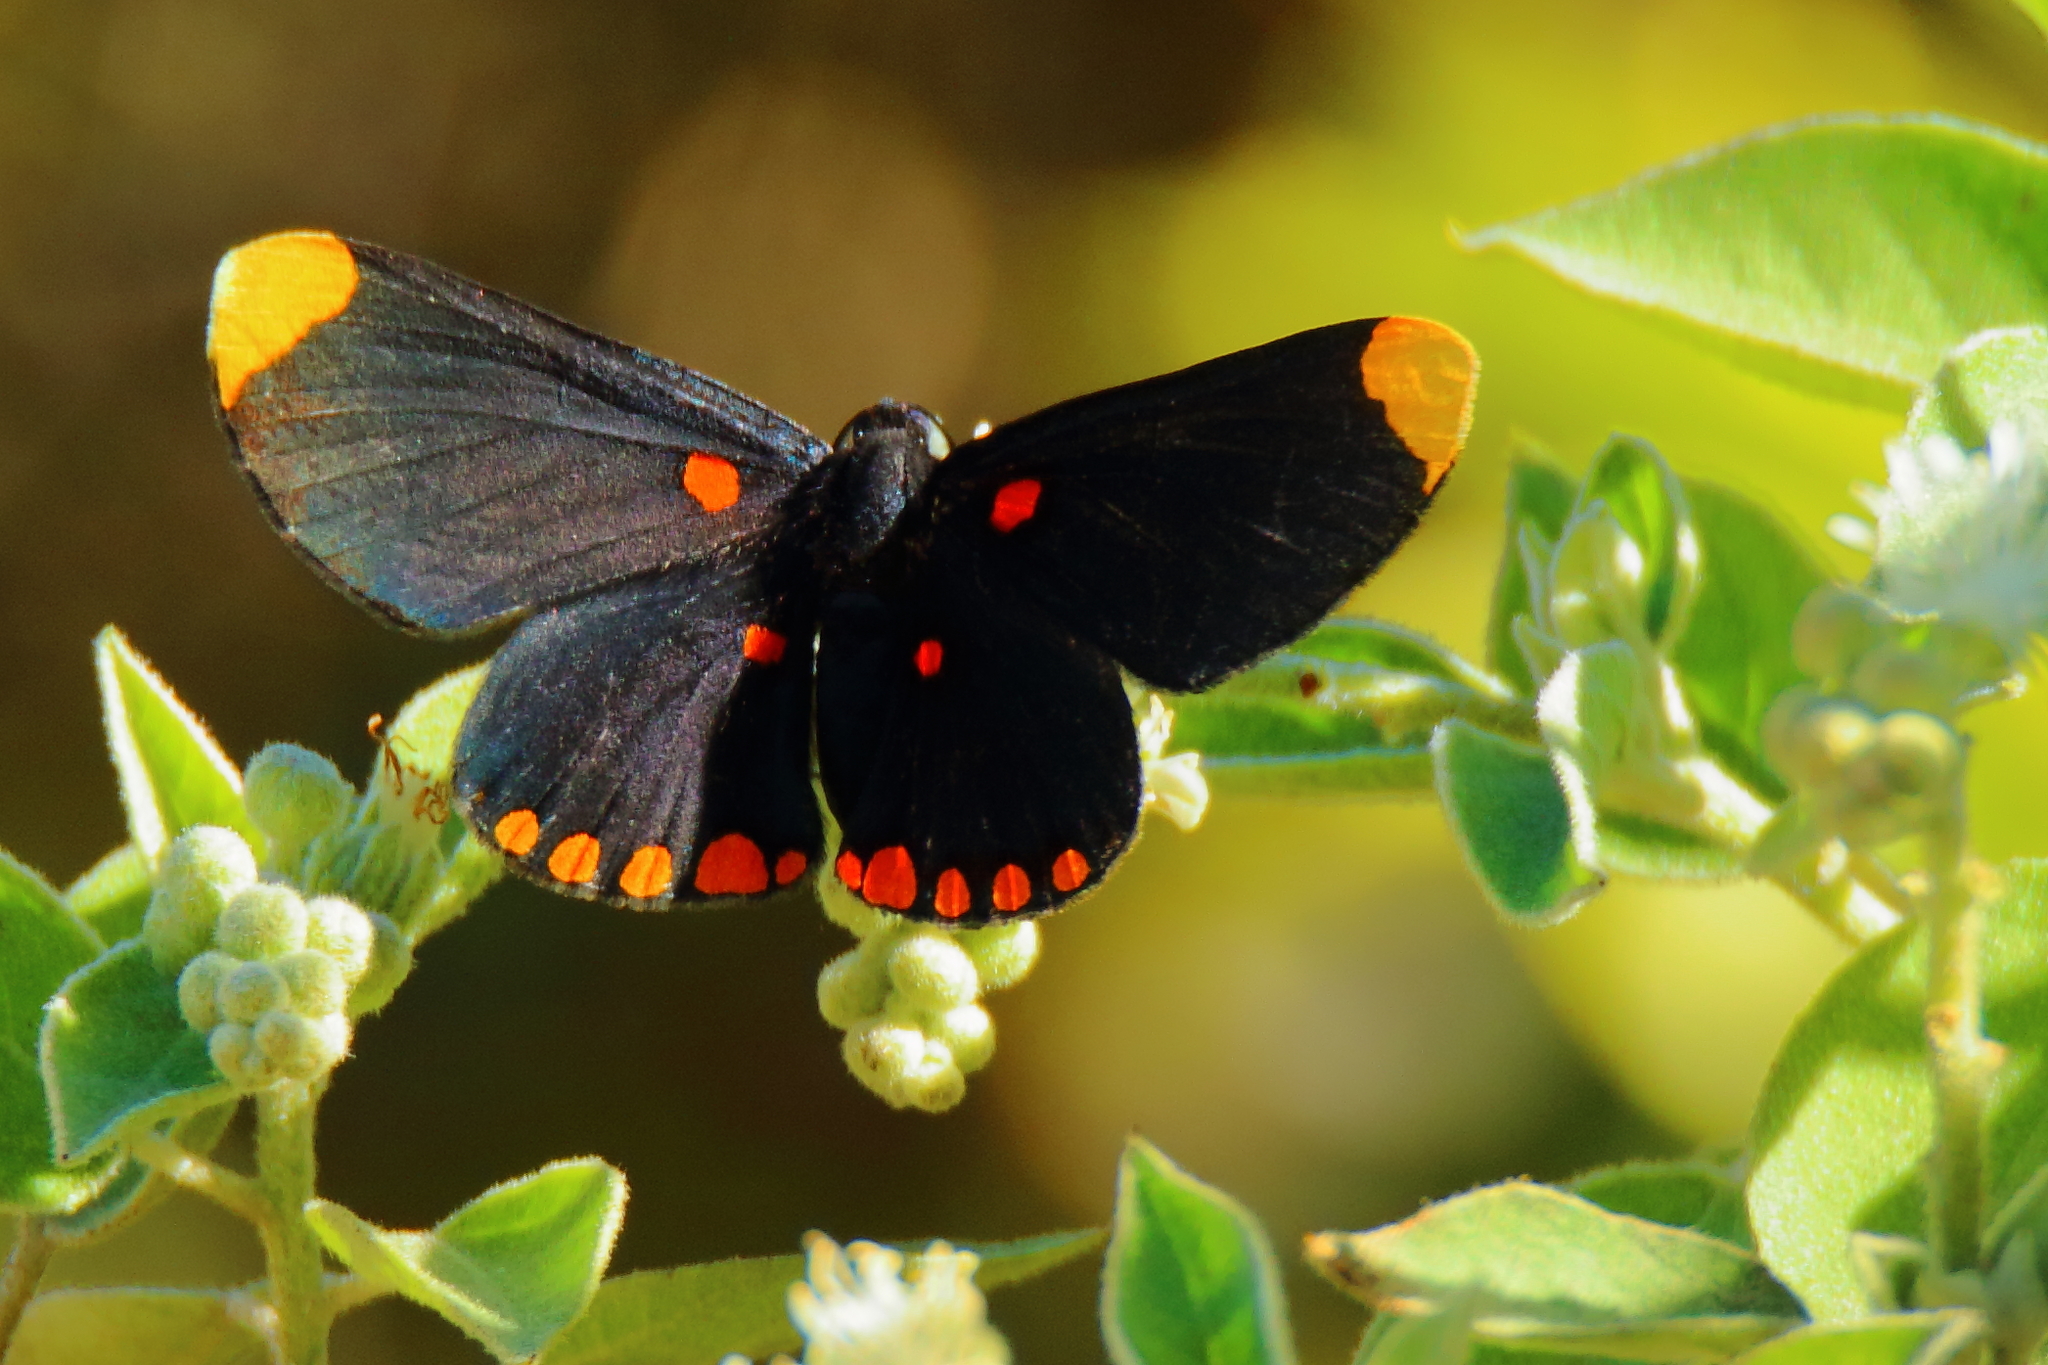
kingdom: Animalia
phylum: Arthropoda
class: Insecta
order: Lepidoptera
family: Lycaenidae
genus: Melanis
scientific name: Melanis pixe
